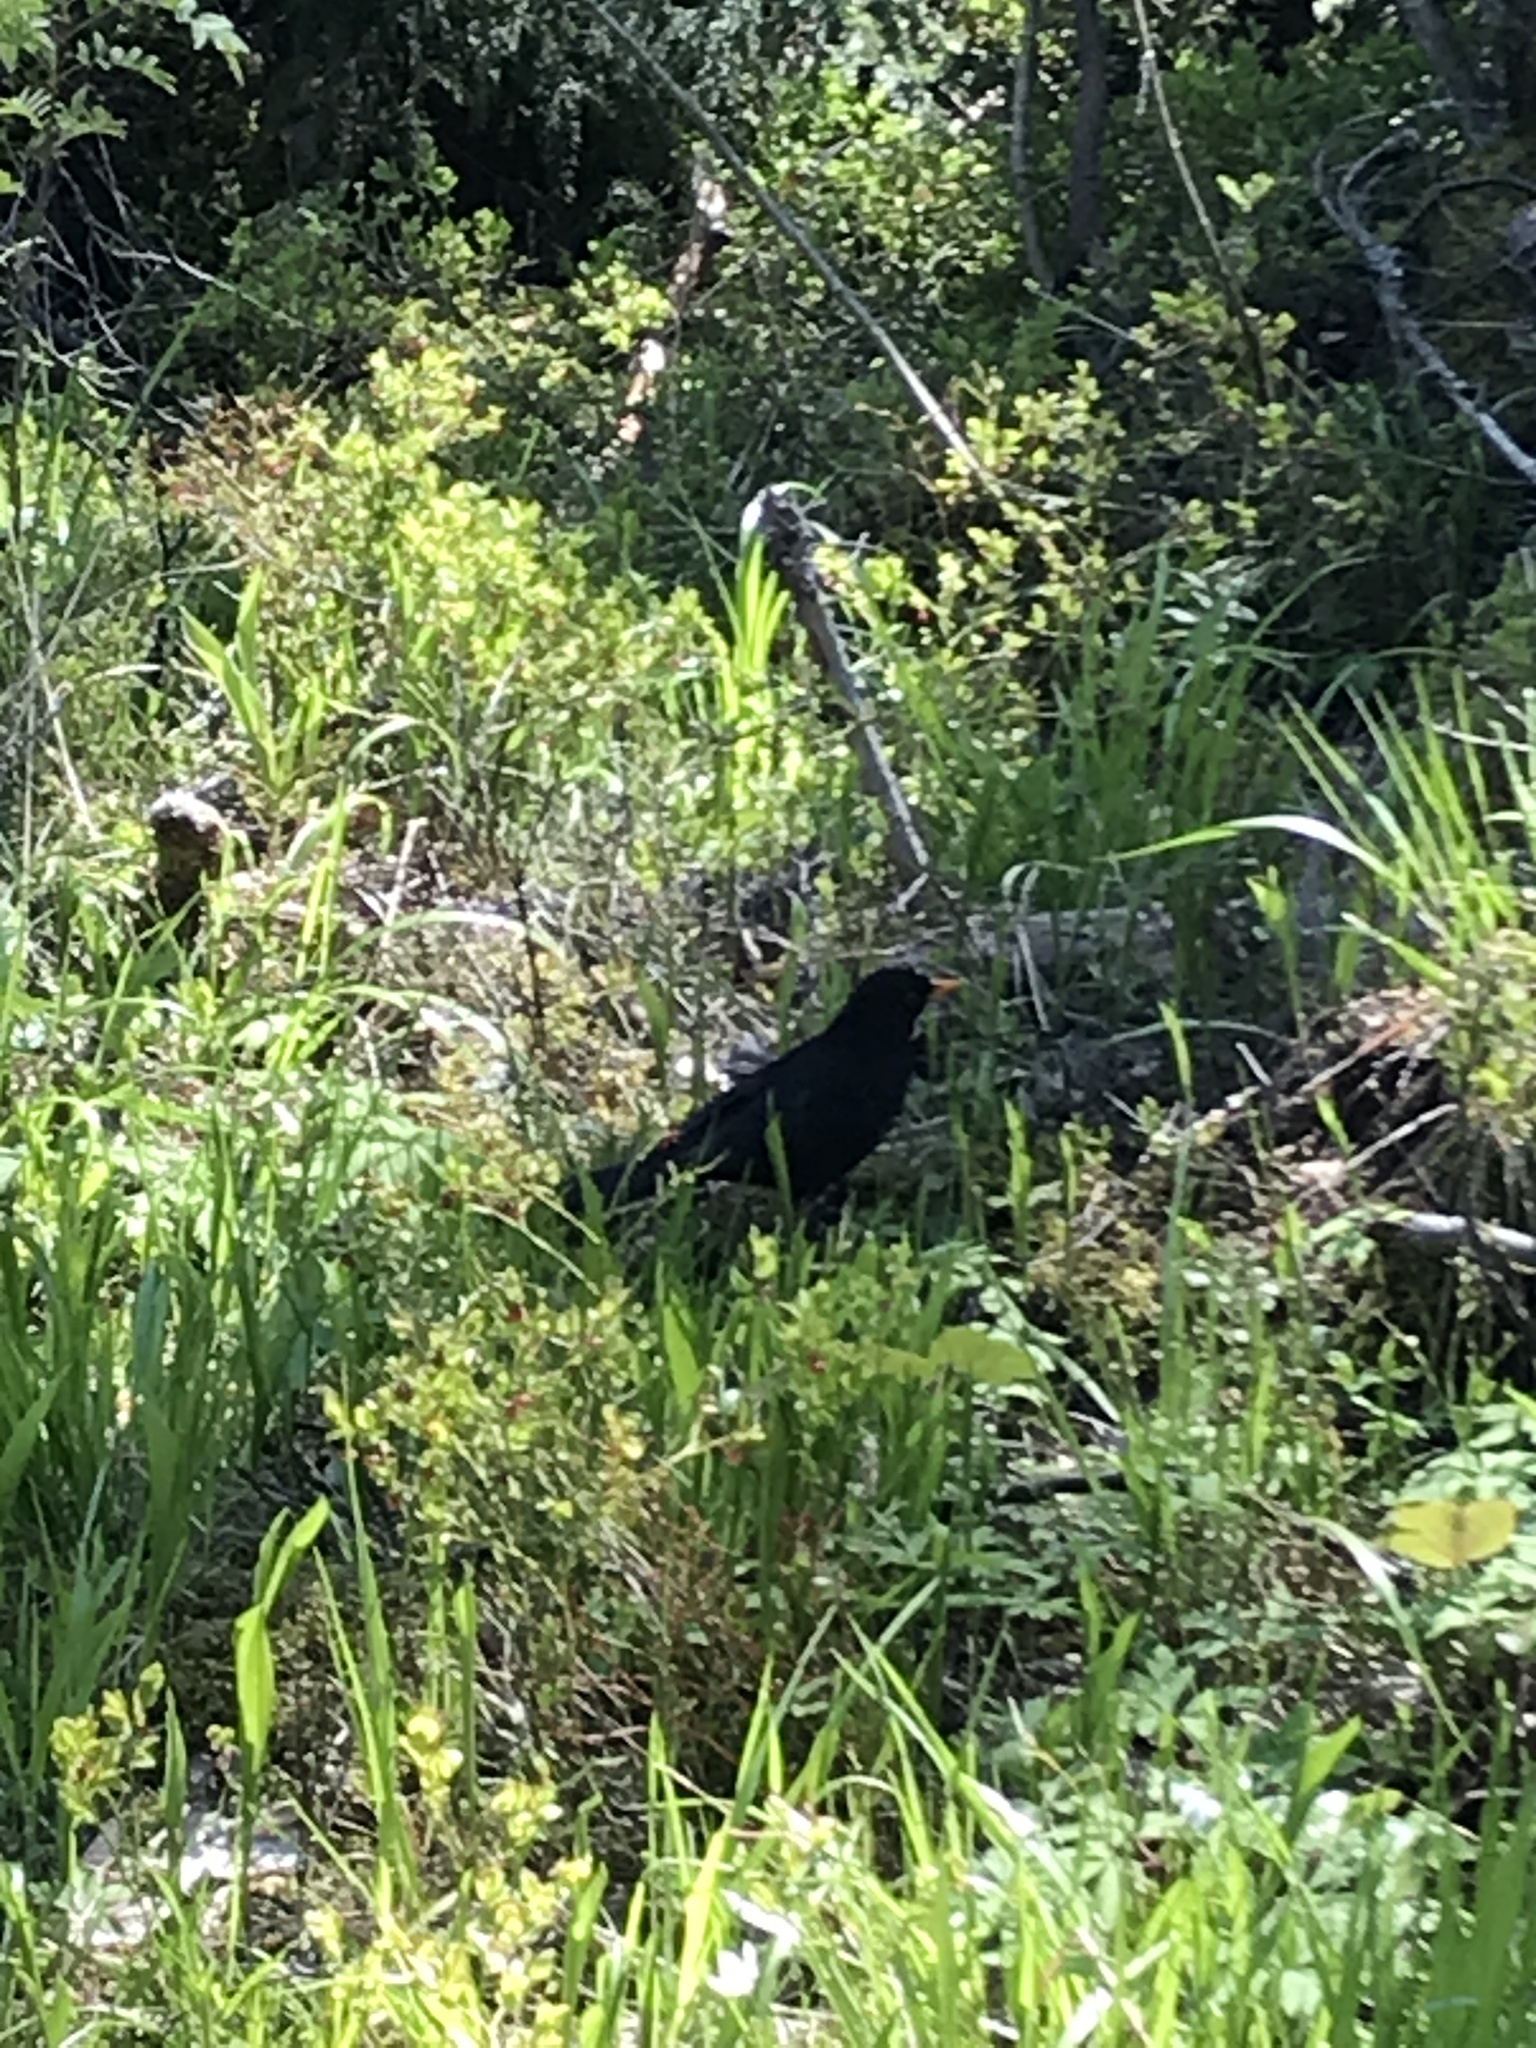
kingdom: Animalia
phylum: Chordata
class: Aves
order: Passeriformes
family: Turdidae
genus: Turdus
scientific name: Turdus merula
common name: Common blackbird
